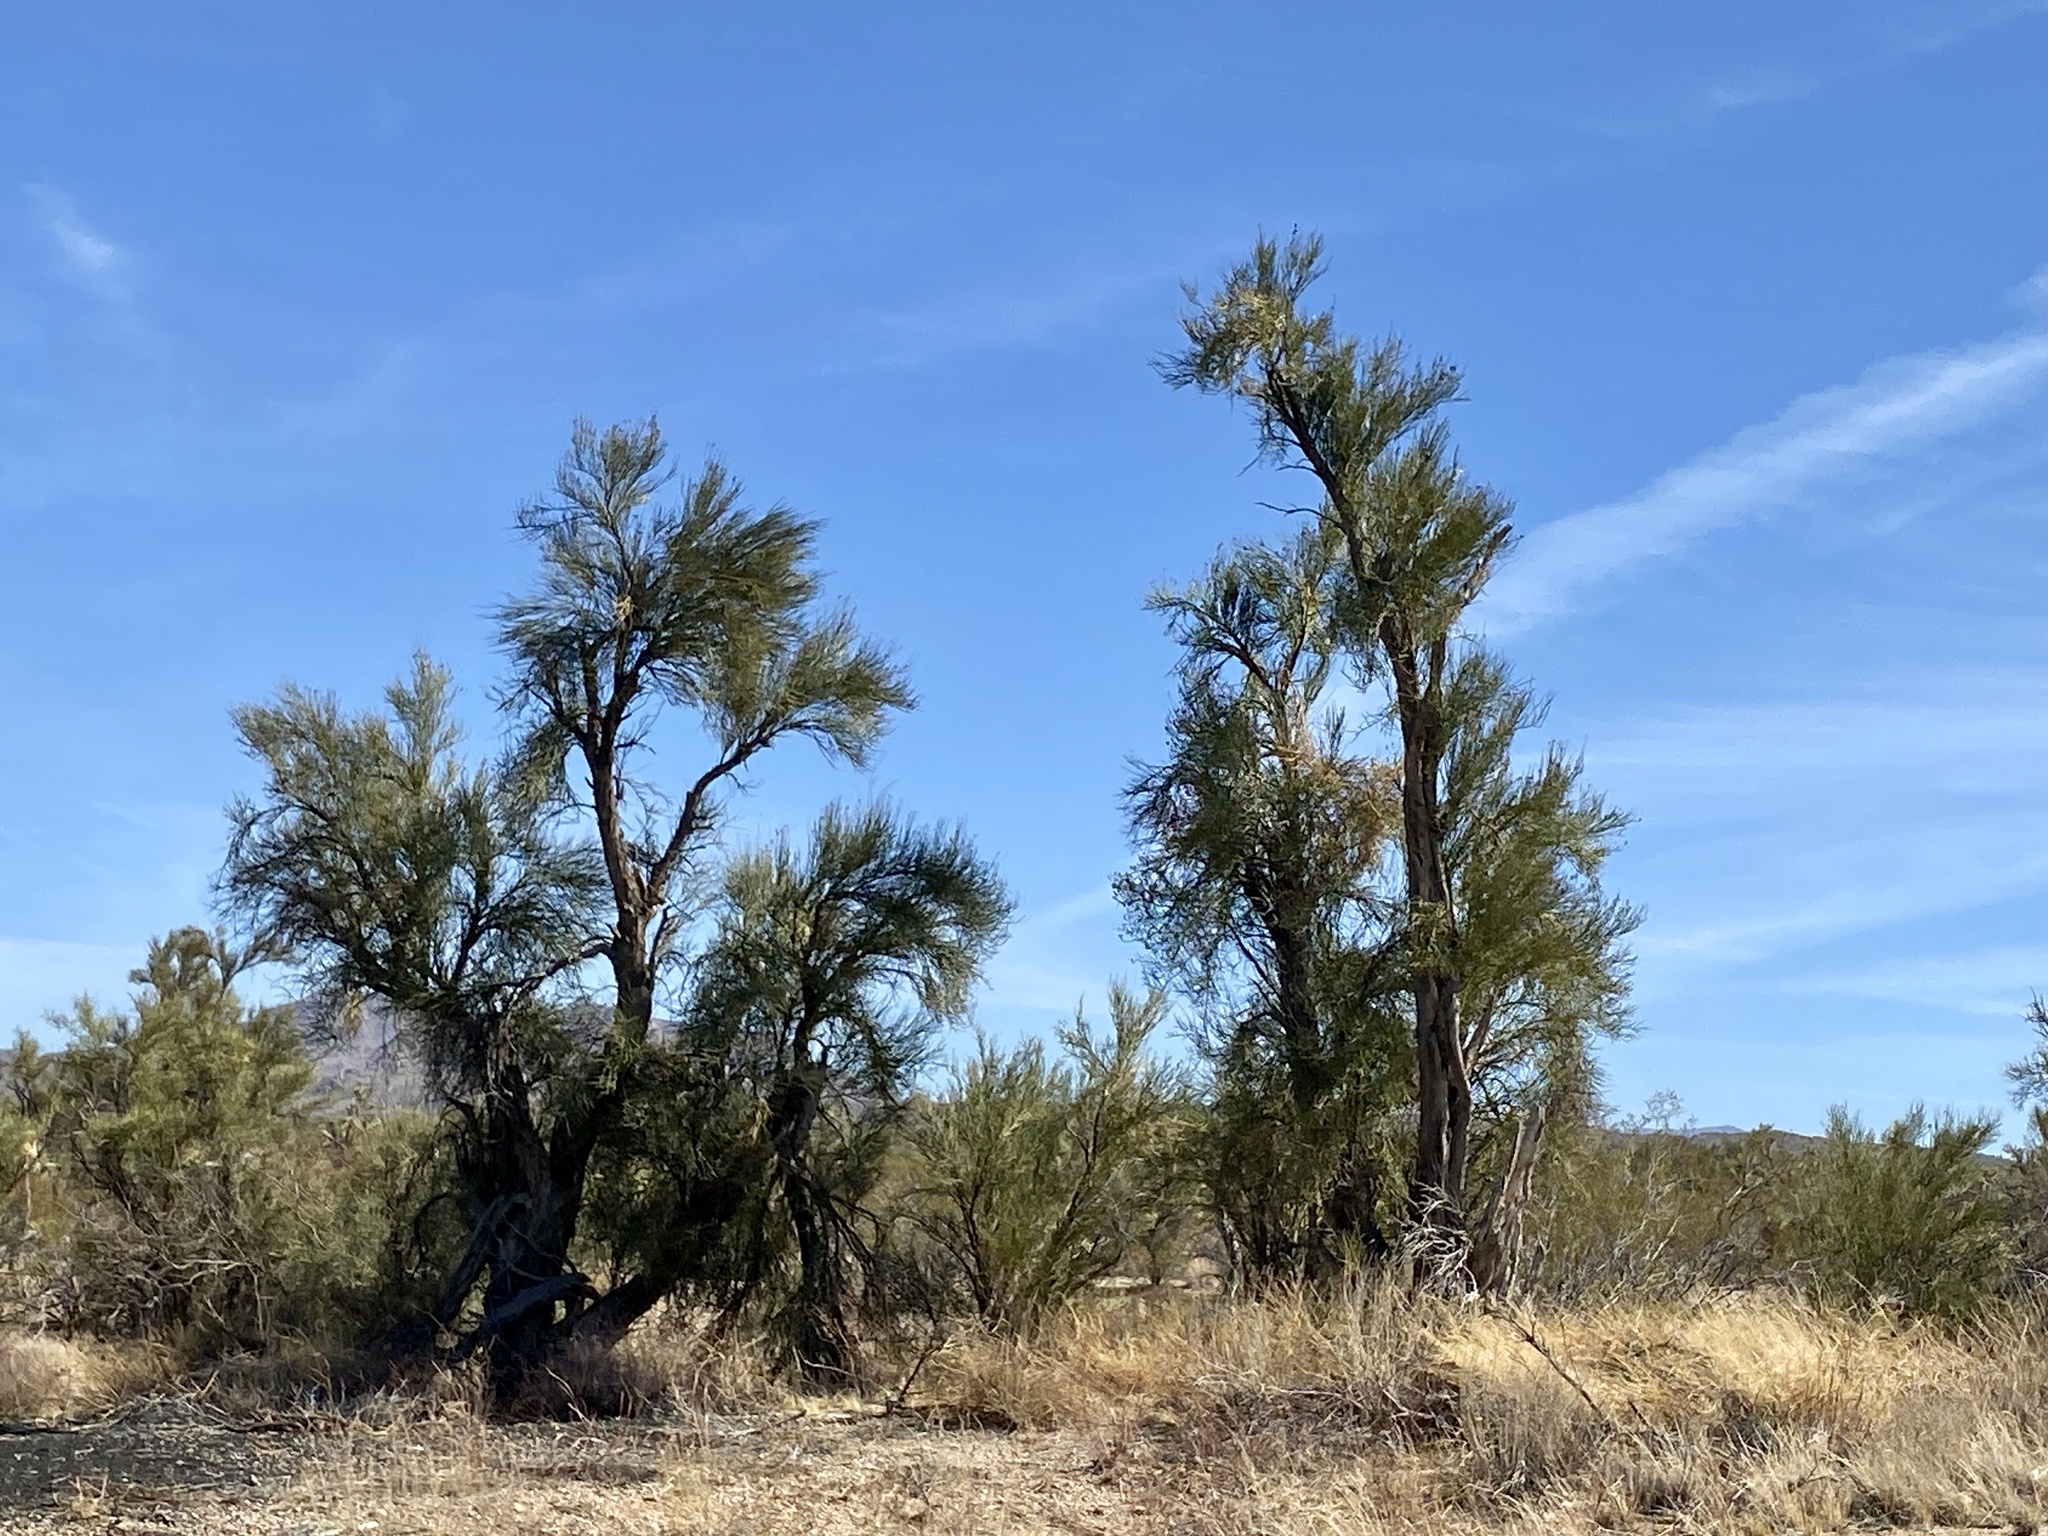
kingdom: Plantae
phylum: Tracheophyta
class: Magnoliopsida
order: Celastrales
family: Celastraceae
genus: Canotia
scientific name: Canotia holacantha
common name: Crucifixion thorns
